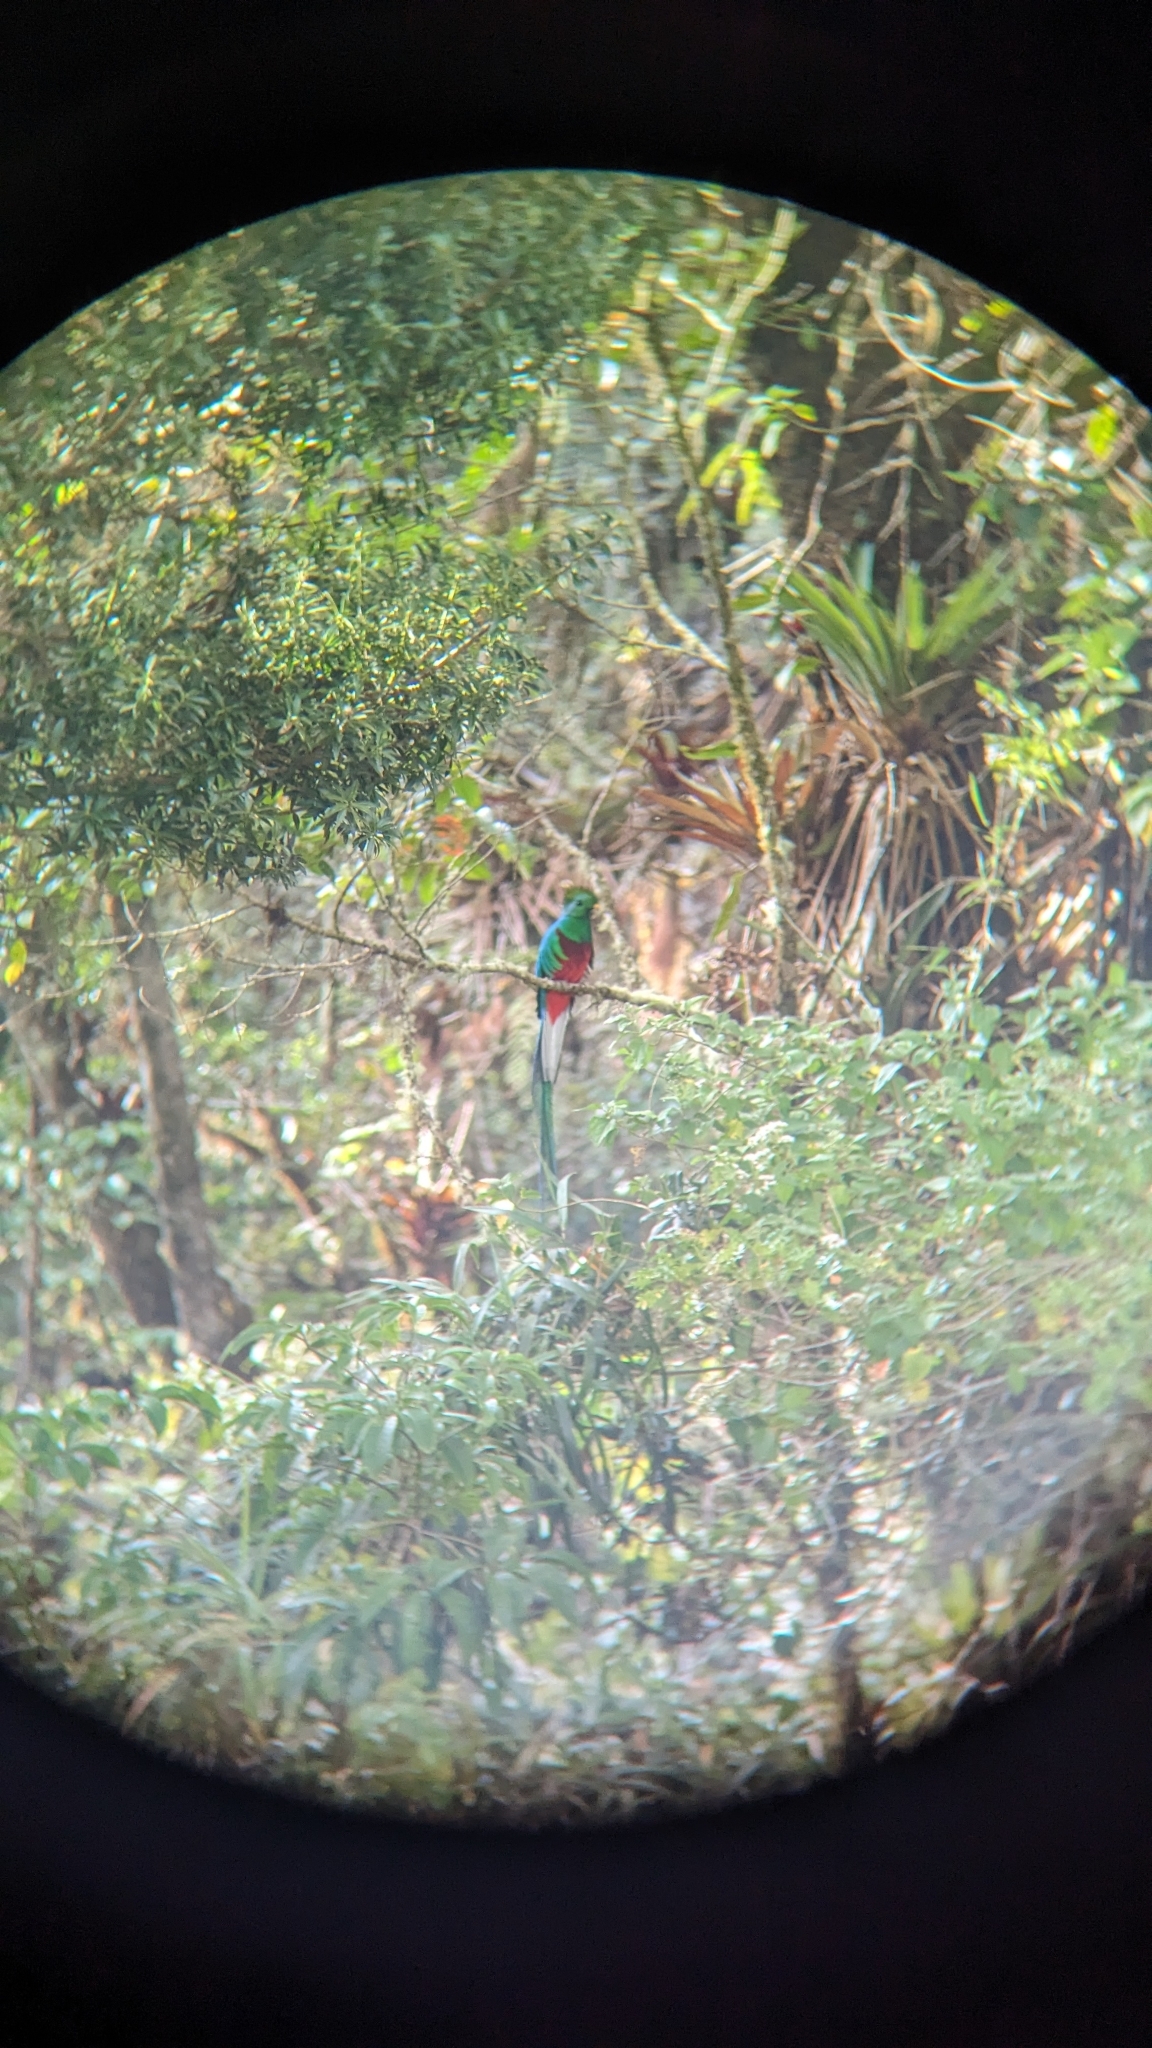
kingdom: Animalia
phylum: Chordata
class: Aves
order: Trogoniformes
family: Trogonidae
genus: Pharomachrus
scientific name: Pharomachrus mocinno
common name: Resplendent quetzal
